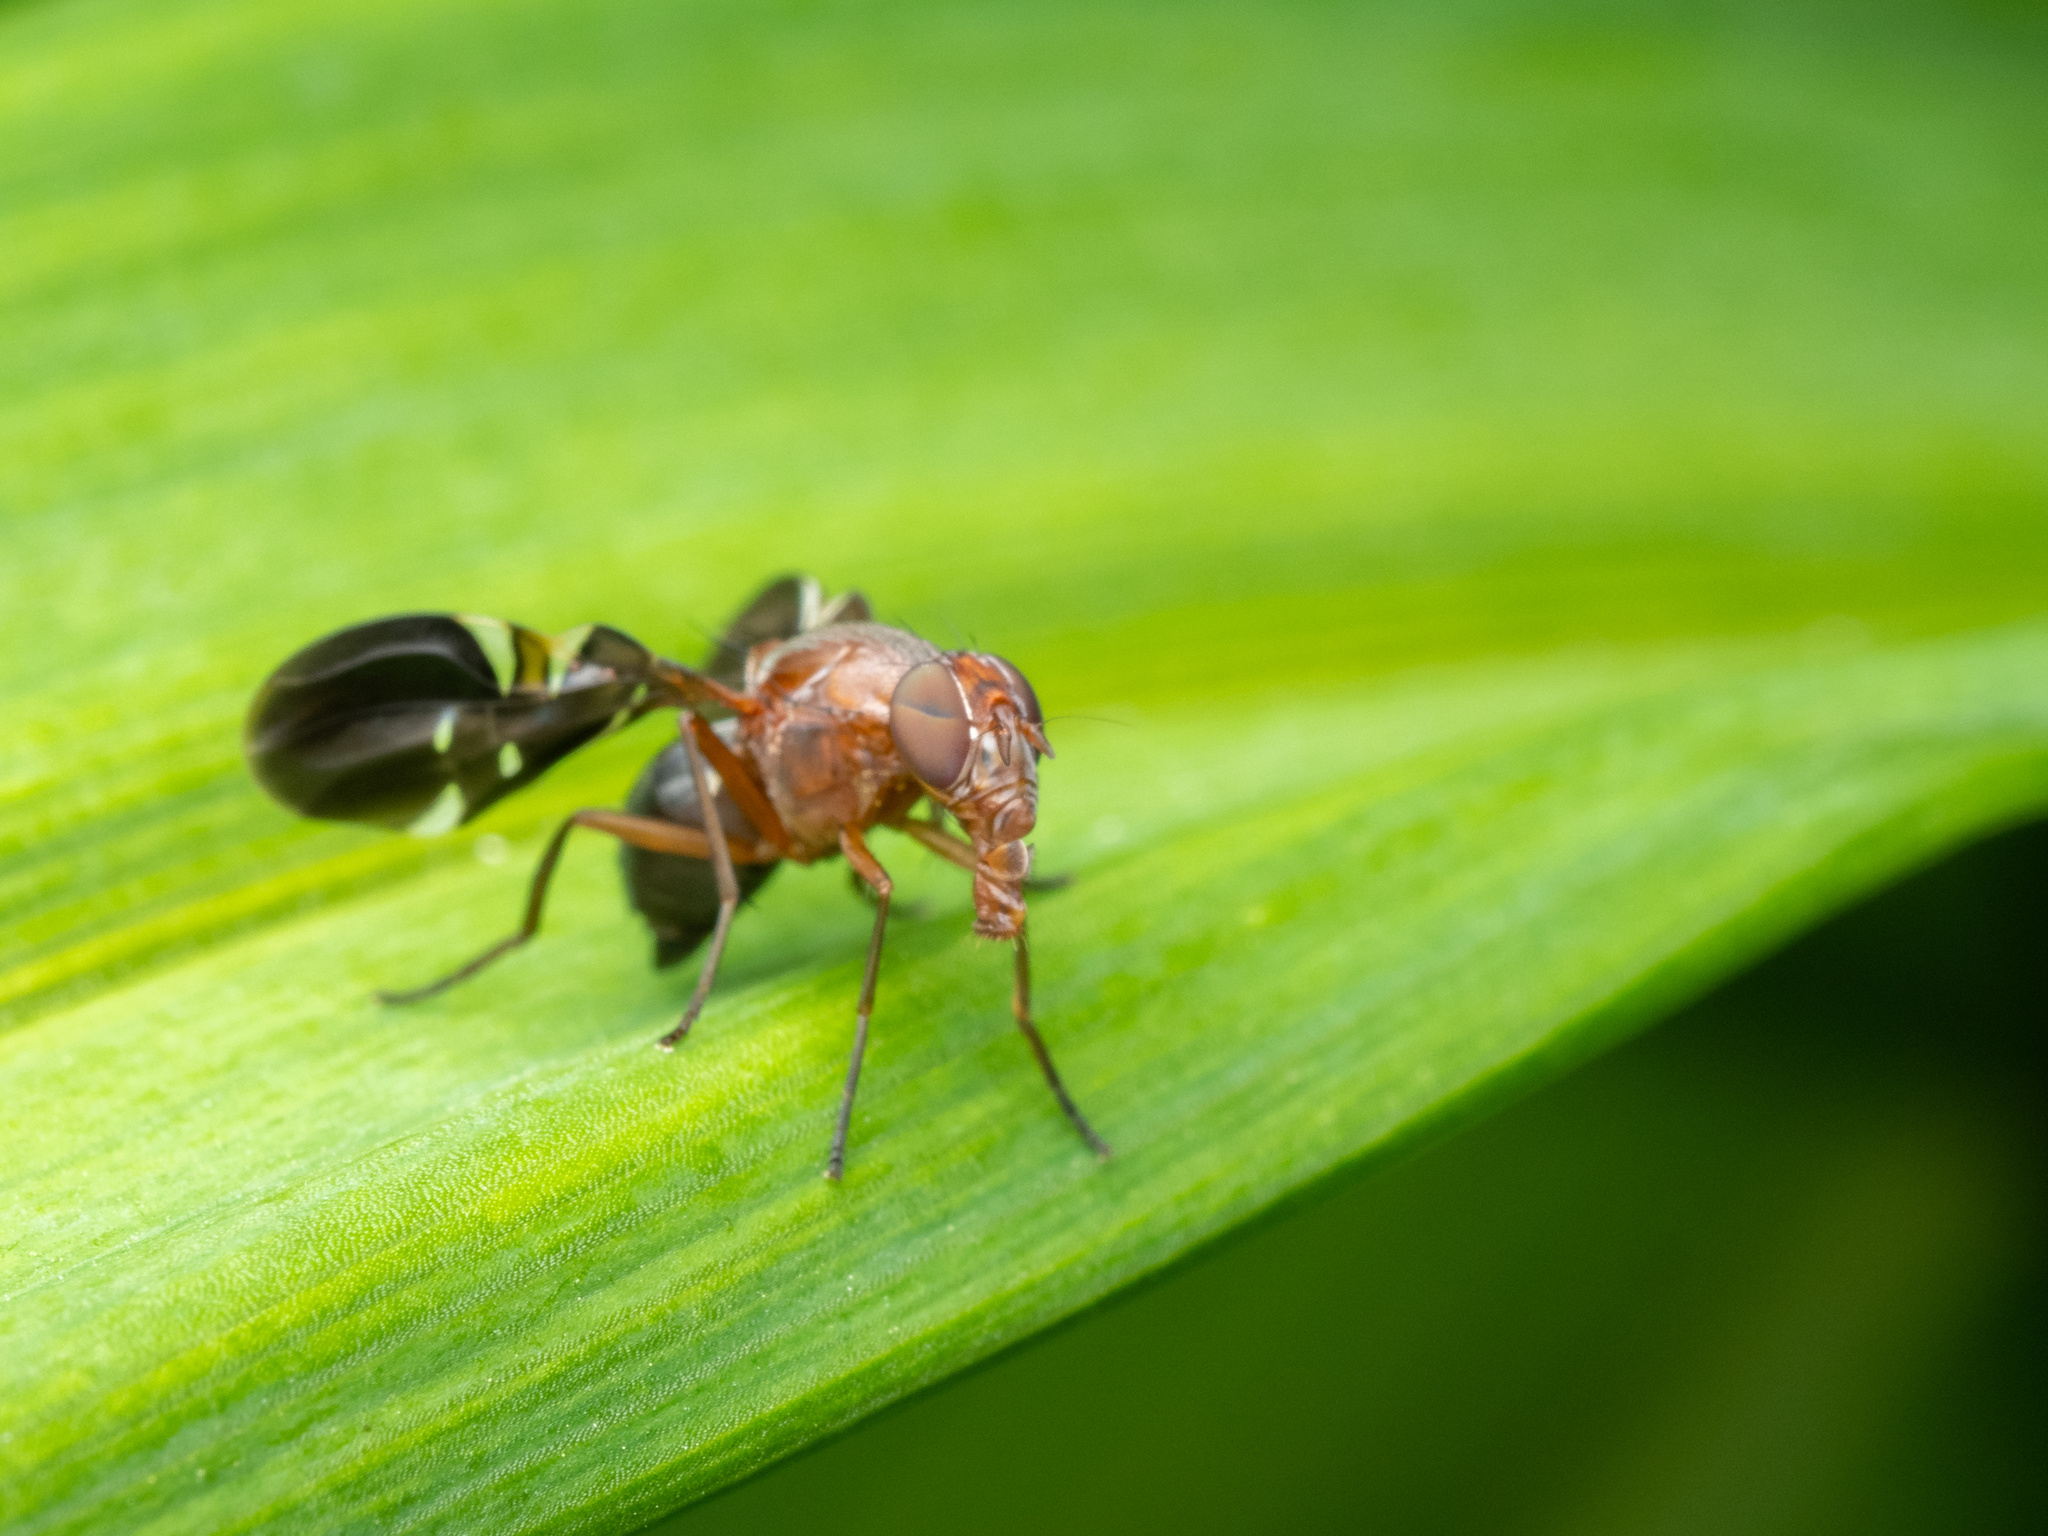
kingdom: Animalia
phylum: Arthropoda
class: Insecta
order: Diptera
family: Ulidiidae
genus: Delphinia
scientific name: Delphinia picta
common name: Common picture-winged fly
